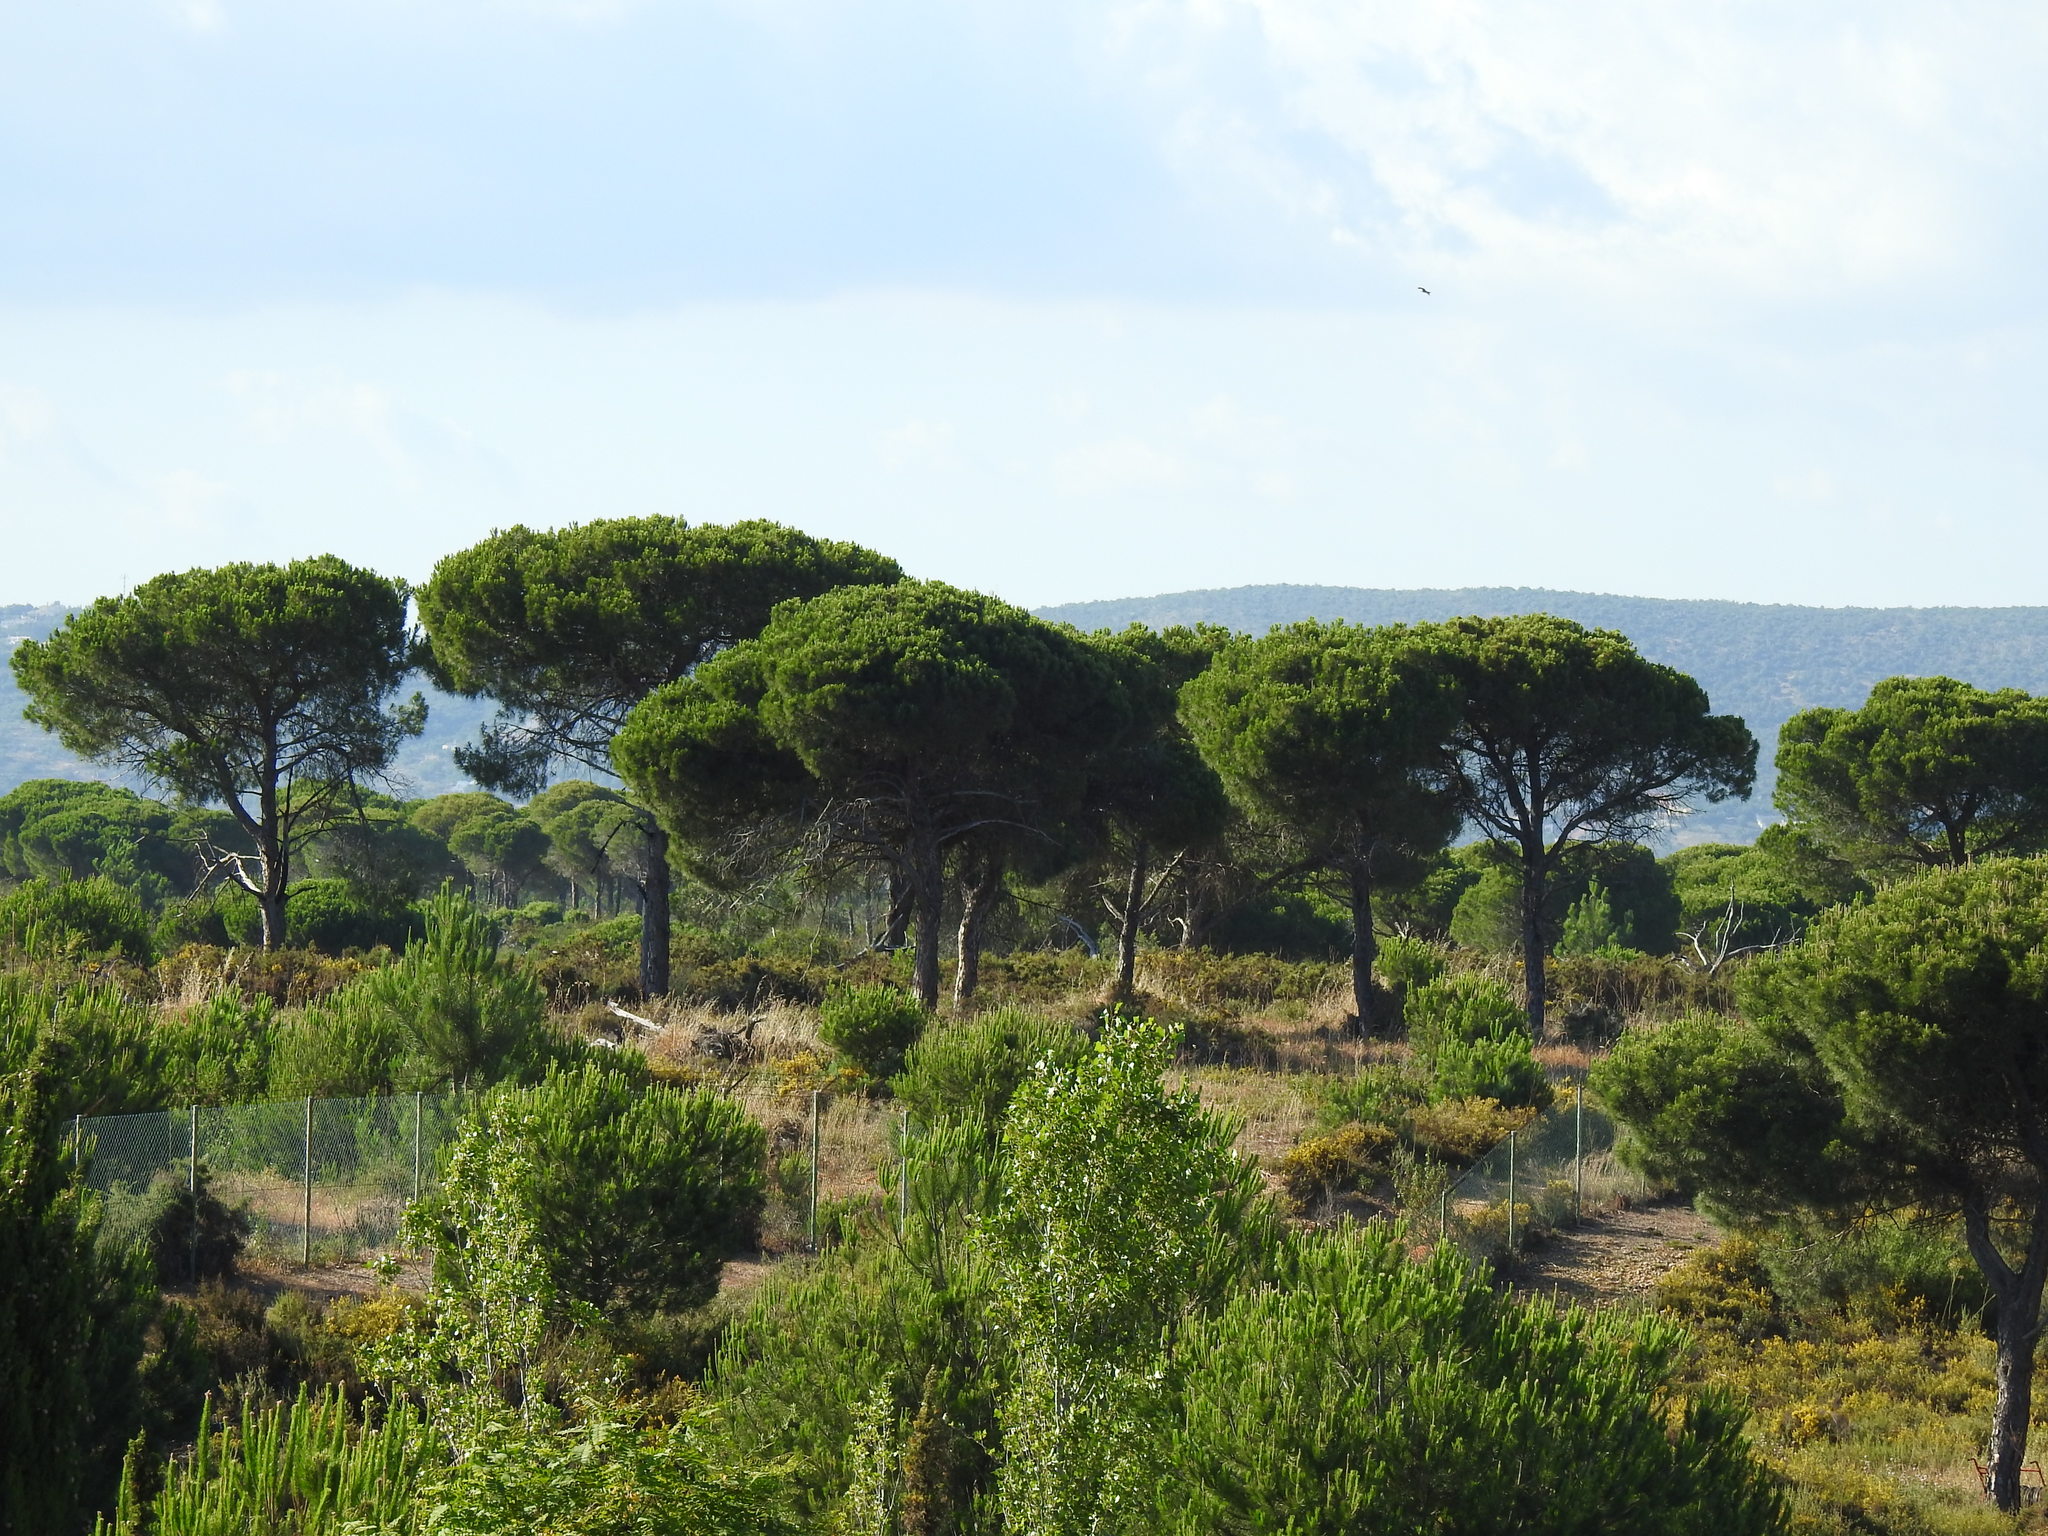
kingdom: Plantae
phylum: Tracheophyta
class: Pinopsida
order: Pinales
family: Pinaceae
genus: Pinus
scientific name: Pinus pinea
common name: Italian stone pine
